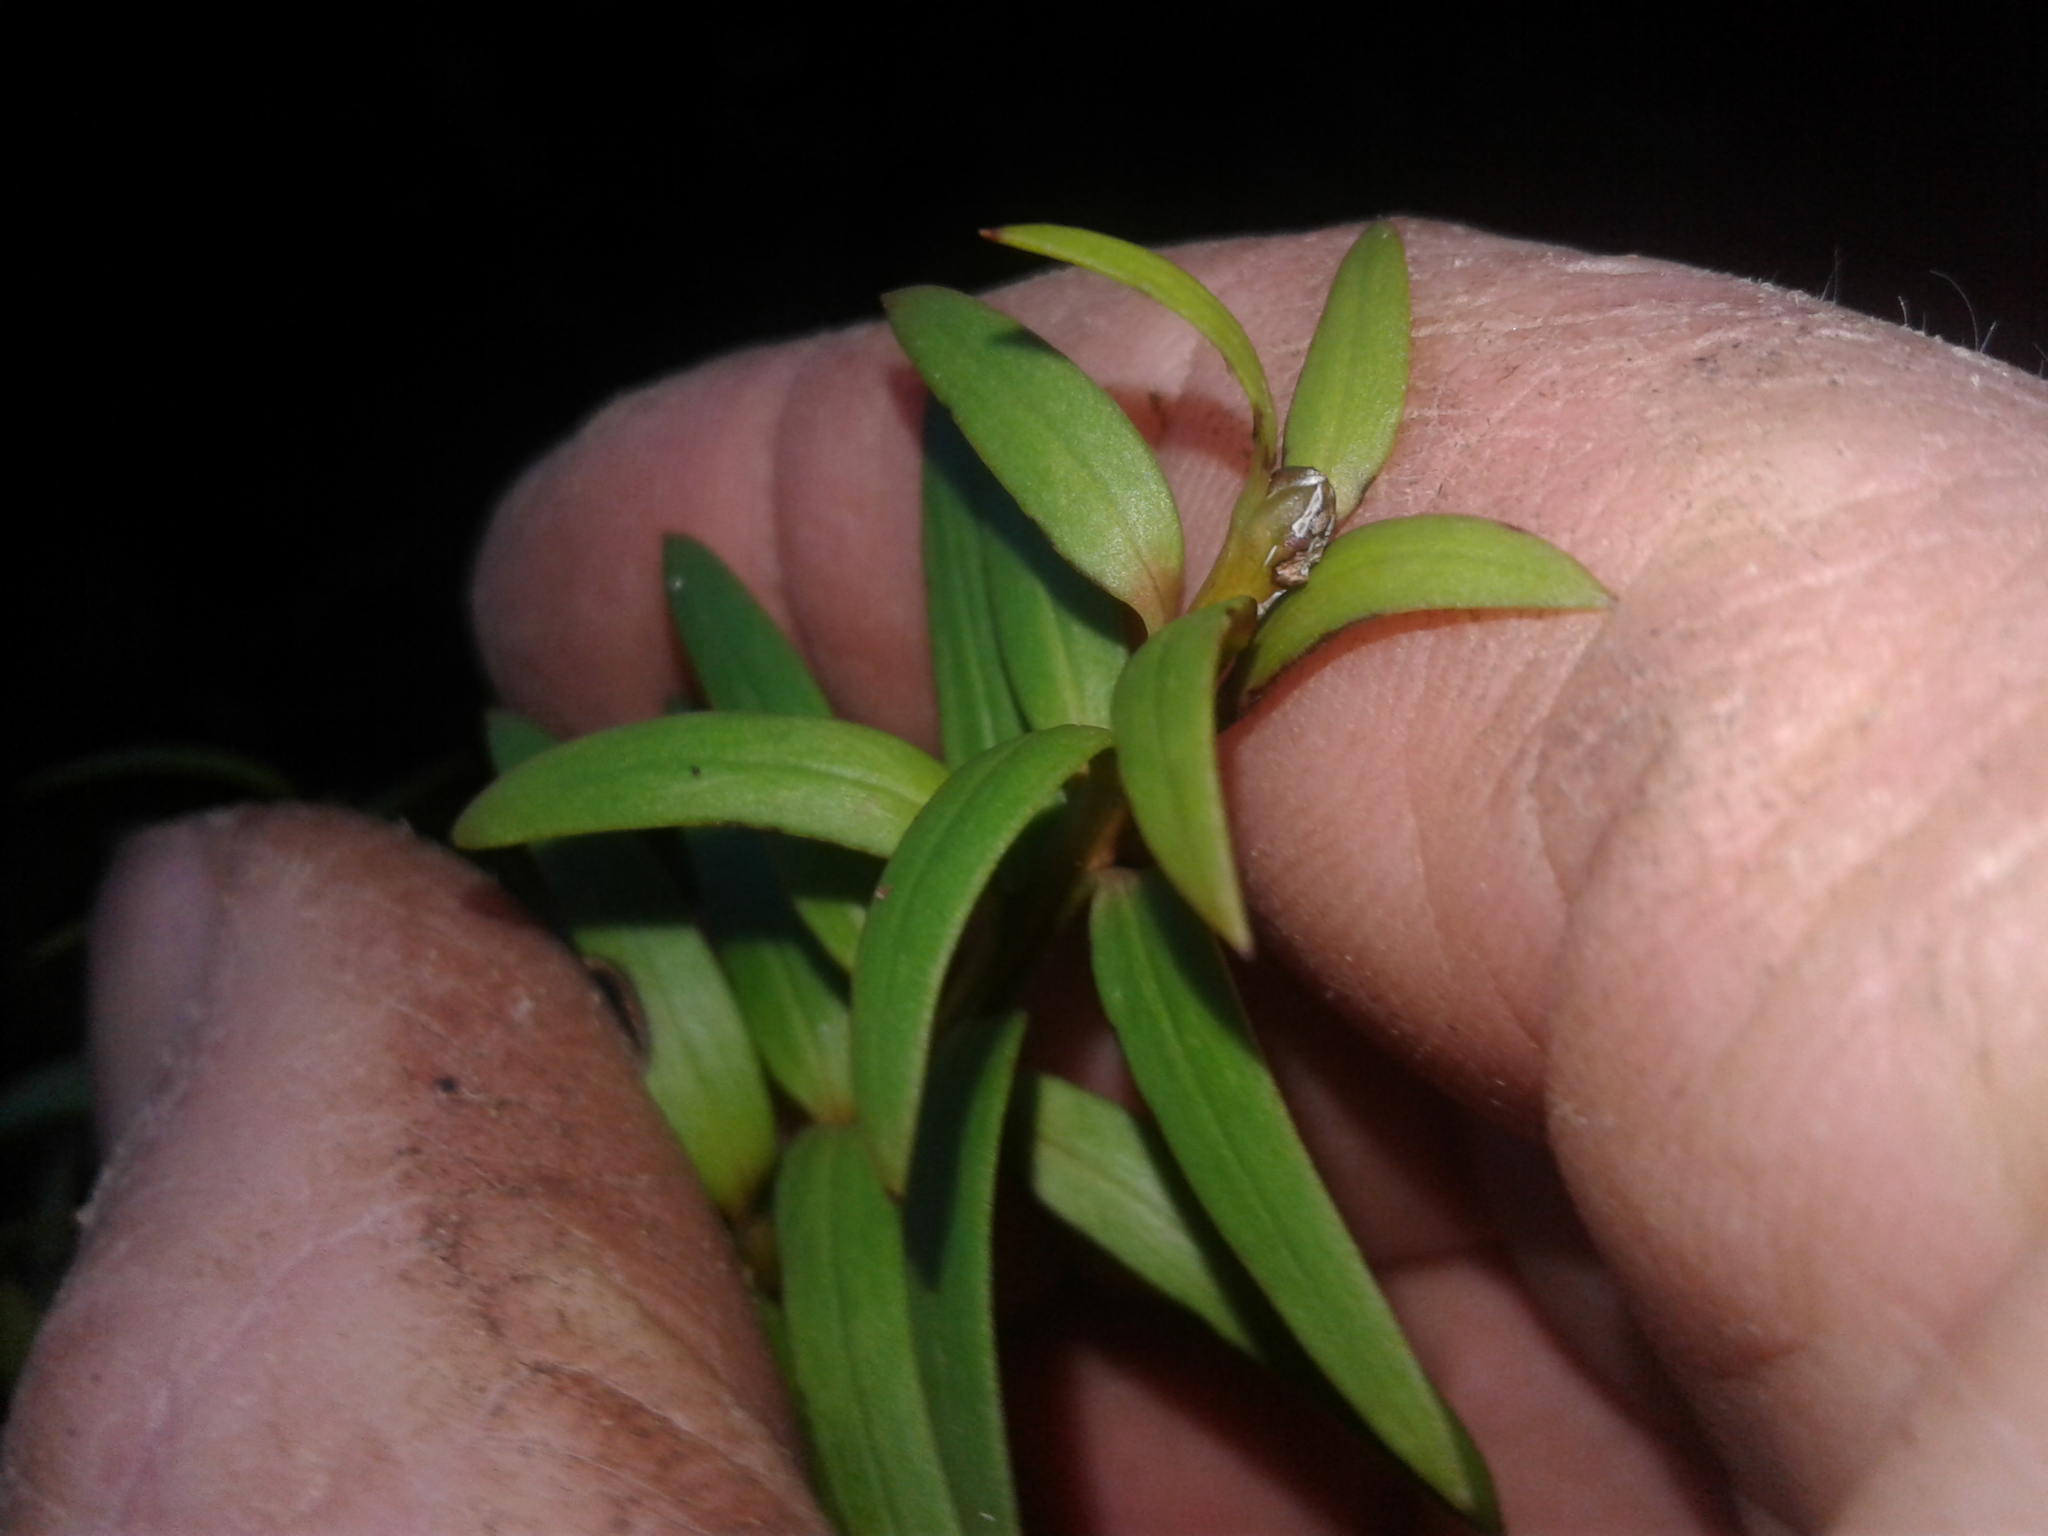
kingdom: Plantae
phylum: Tracheophyta
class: Pinopsida
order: Pinales
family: Podocarpaceae
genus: Podocarpus
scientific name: Podocarpus laetus
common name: Hall's totara
